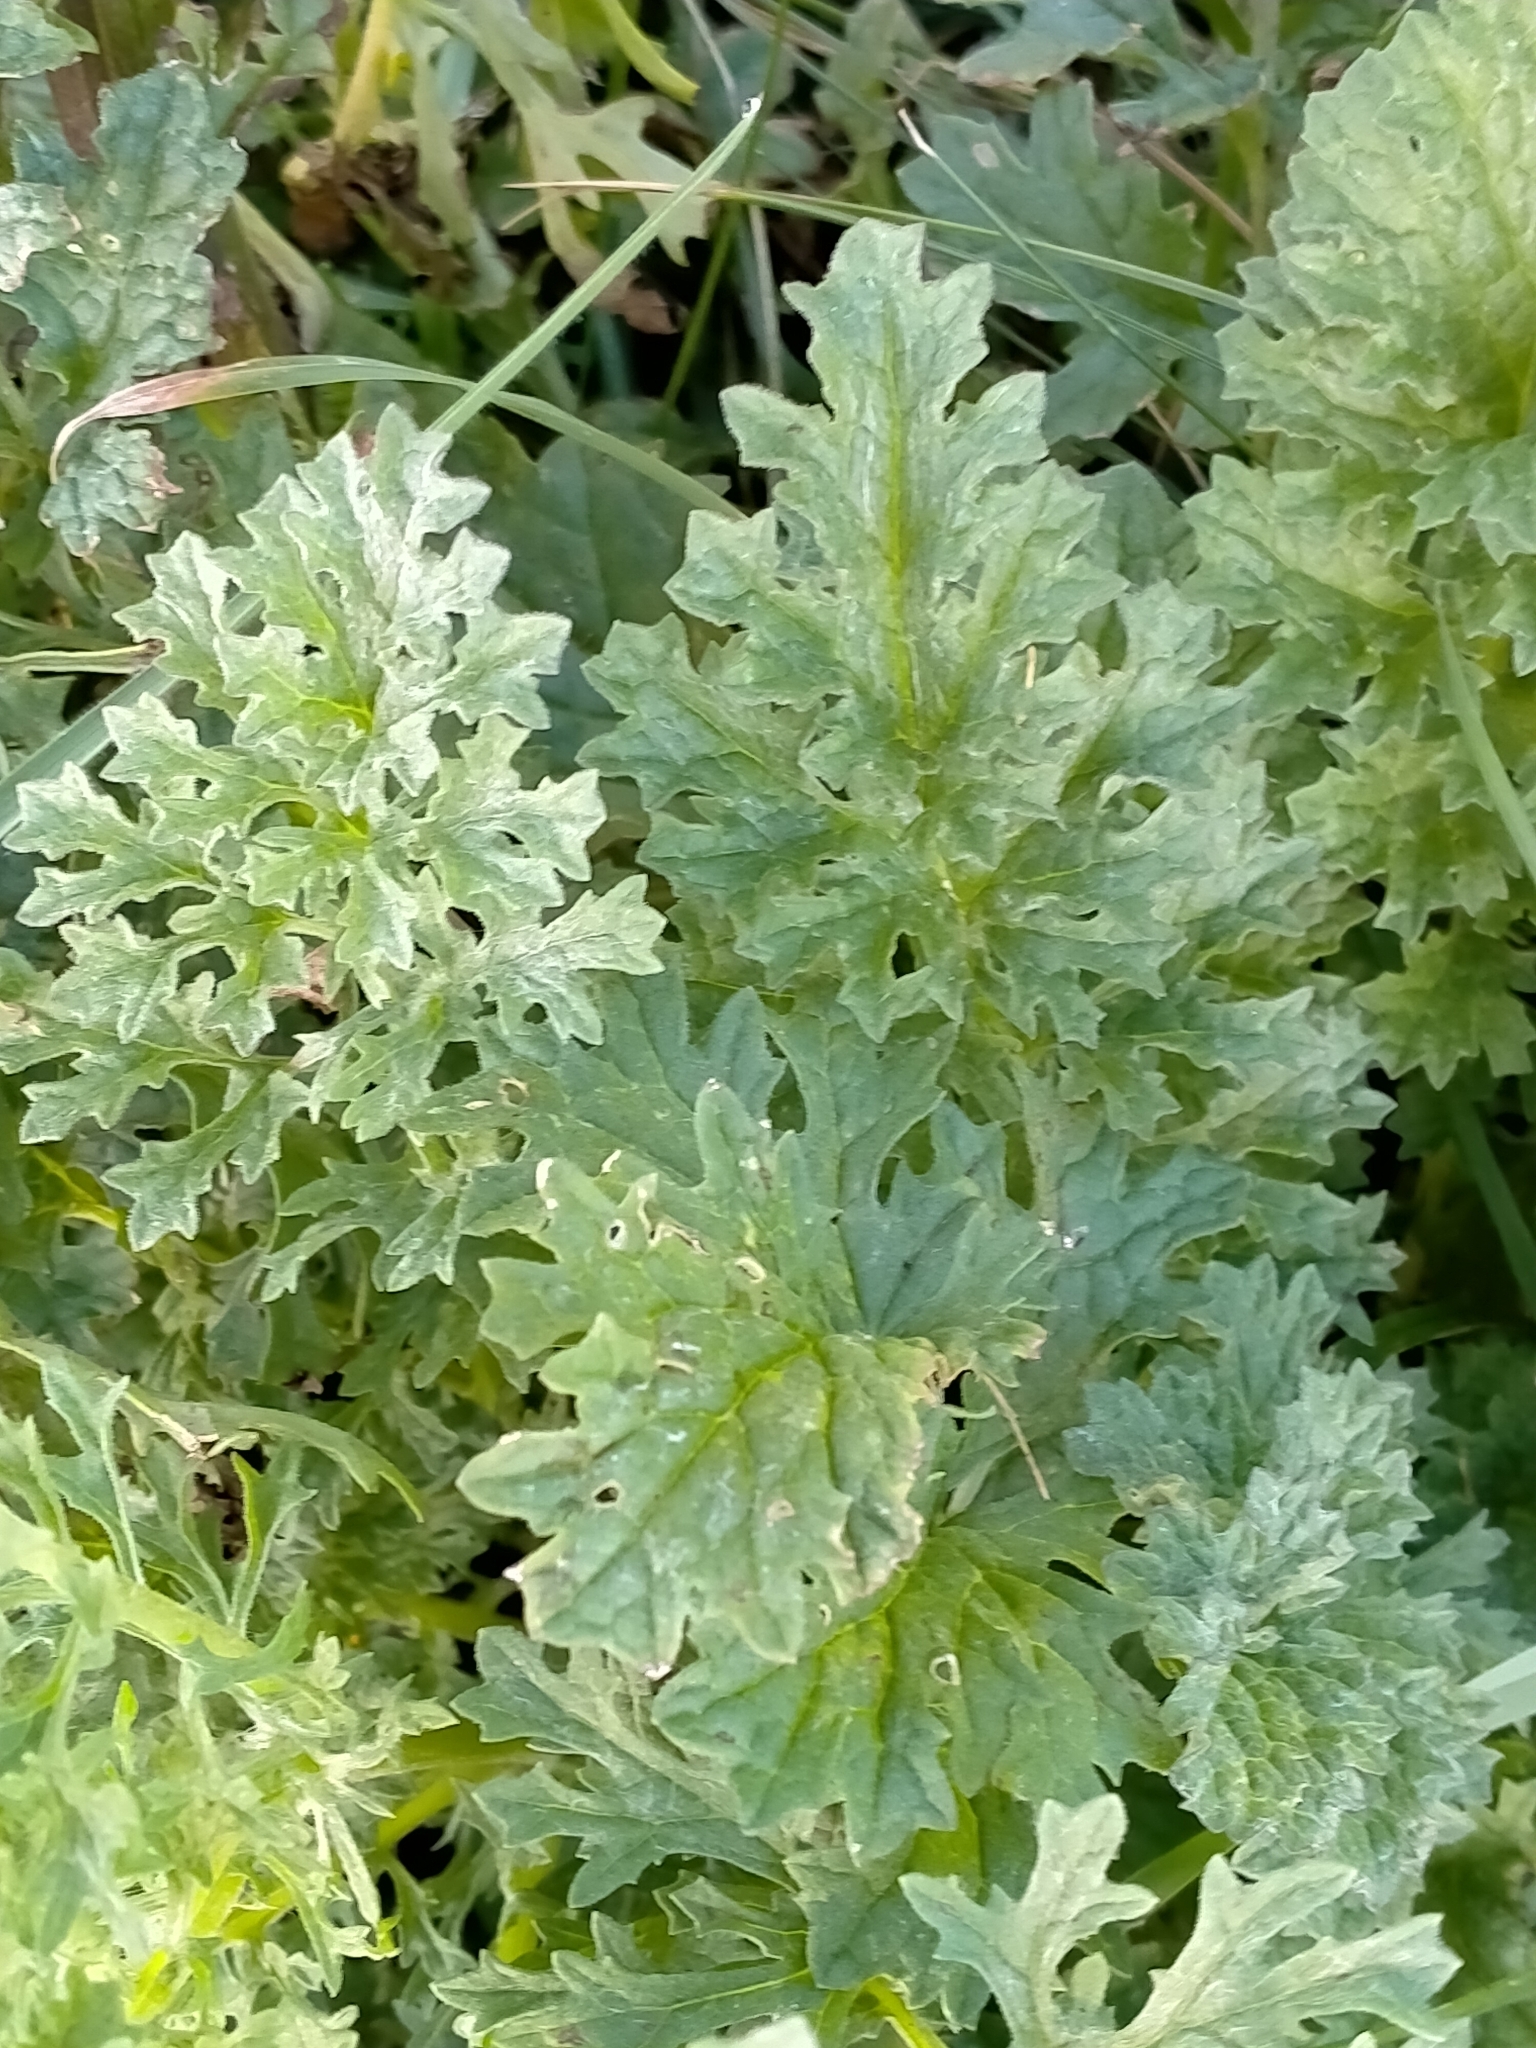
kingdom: Plantae
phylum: Tracheophyta
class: Magnoliopsida
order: Asterales
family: Asteraceae
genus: Jacobaea
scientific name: Jacobaea vulgaris
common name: Stinking willie
